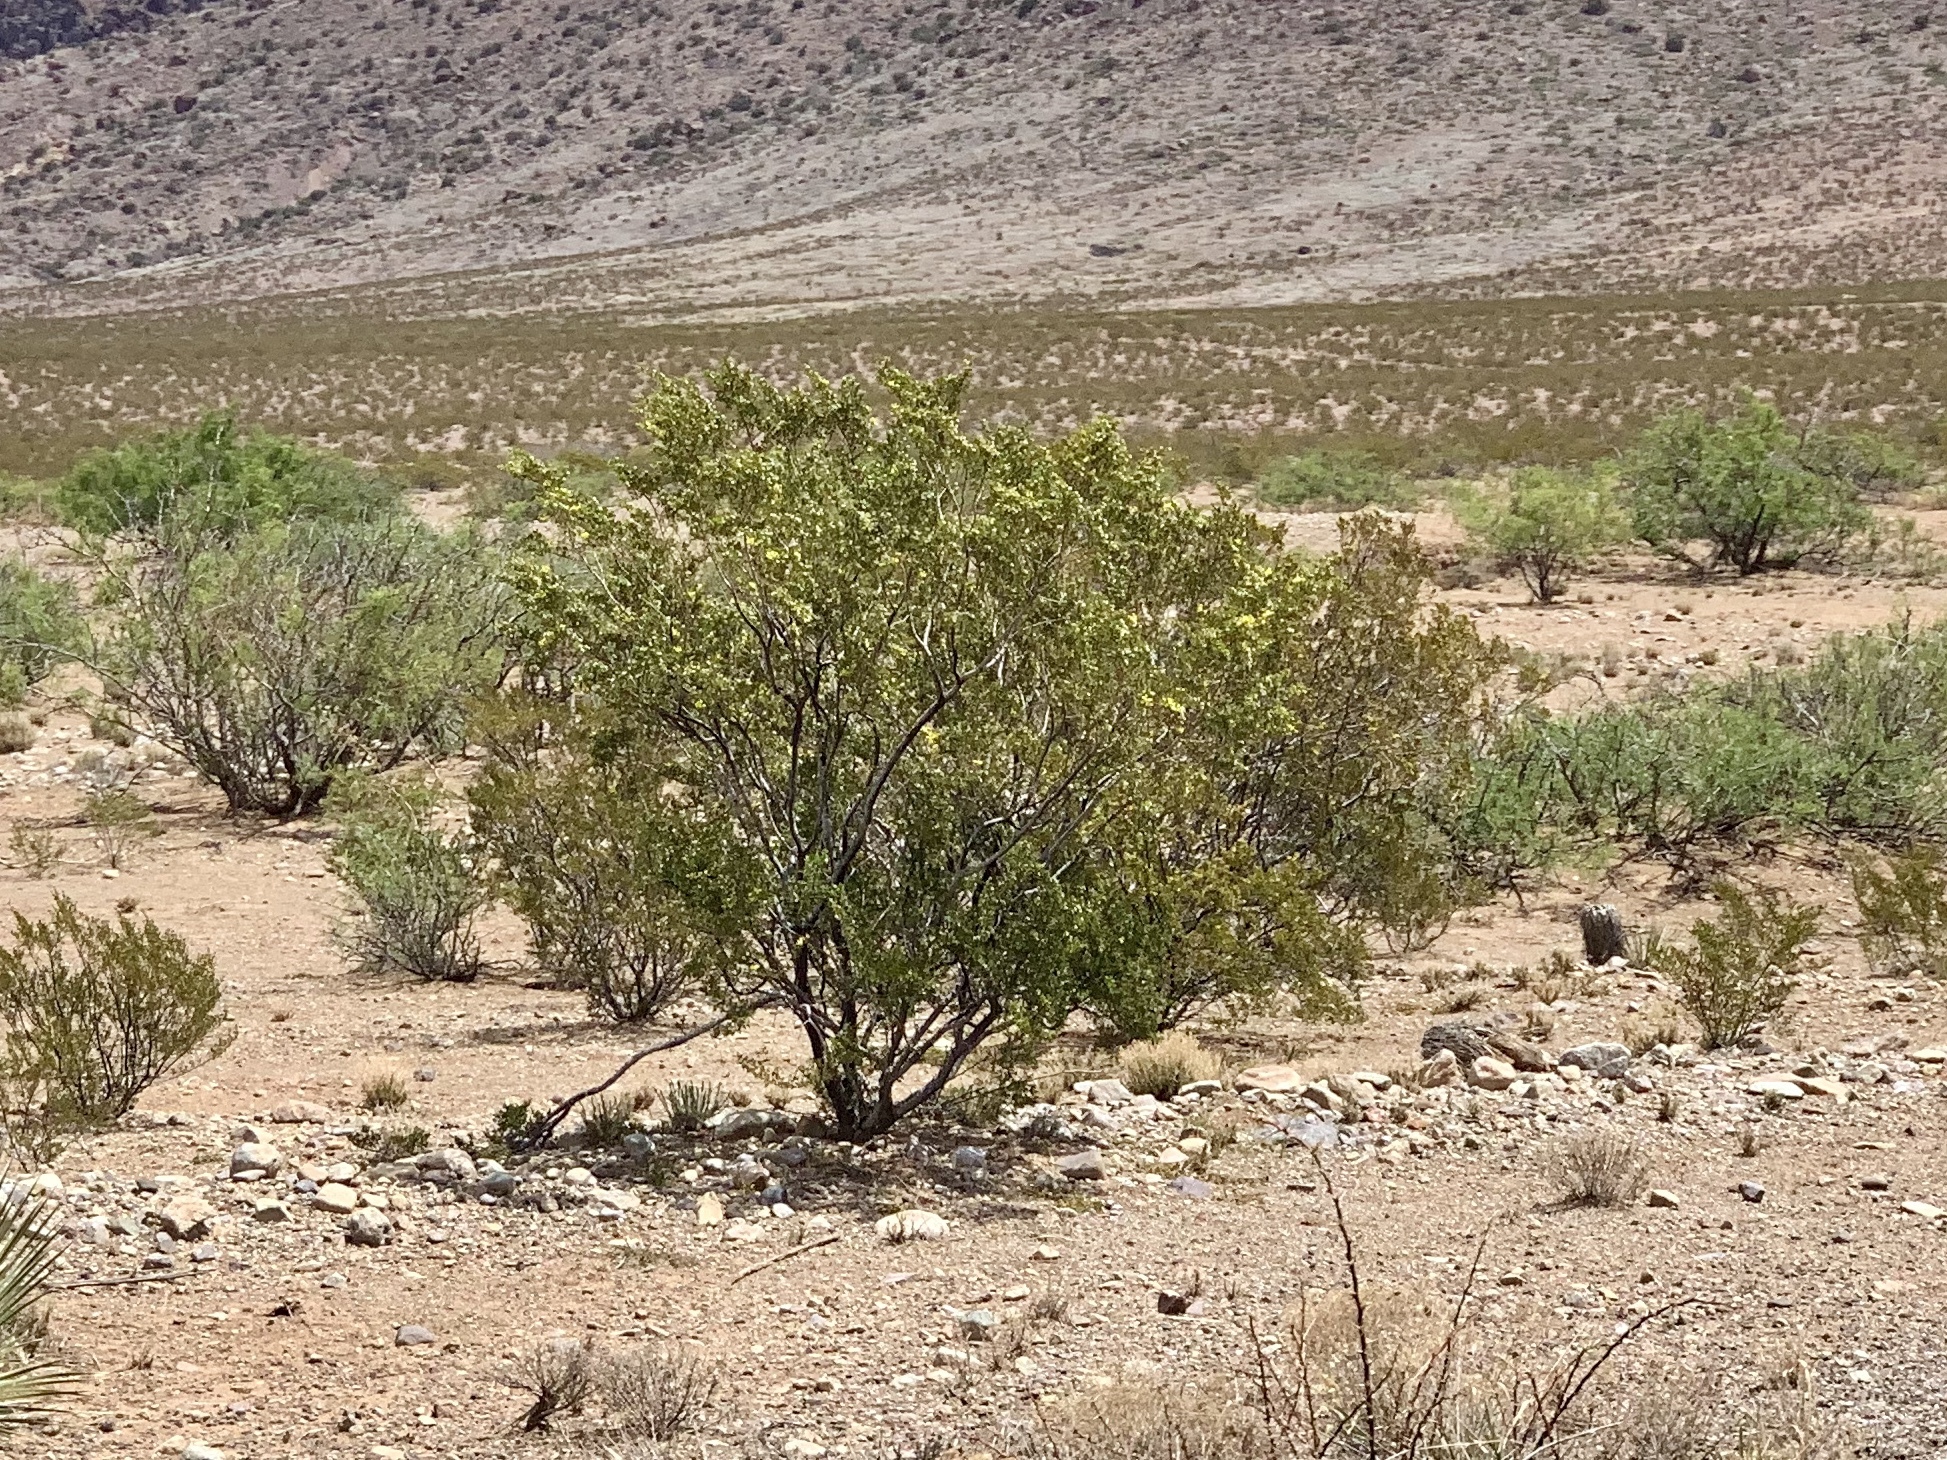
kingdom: Plantae
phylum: Tracheophyta
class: Magnoliopsida
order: Zygophyllales
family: Zygophyllaceae
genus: Larrea
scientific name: Larrea tridentata
